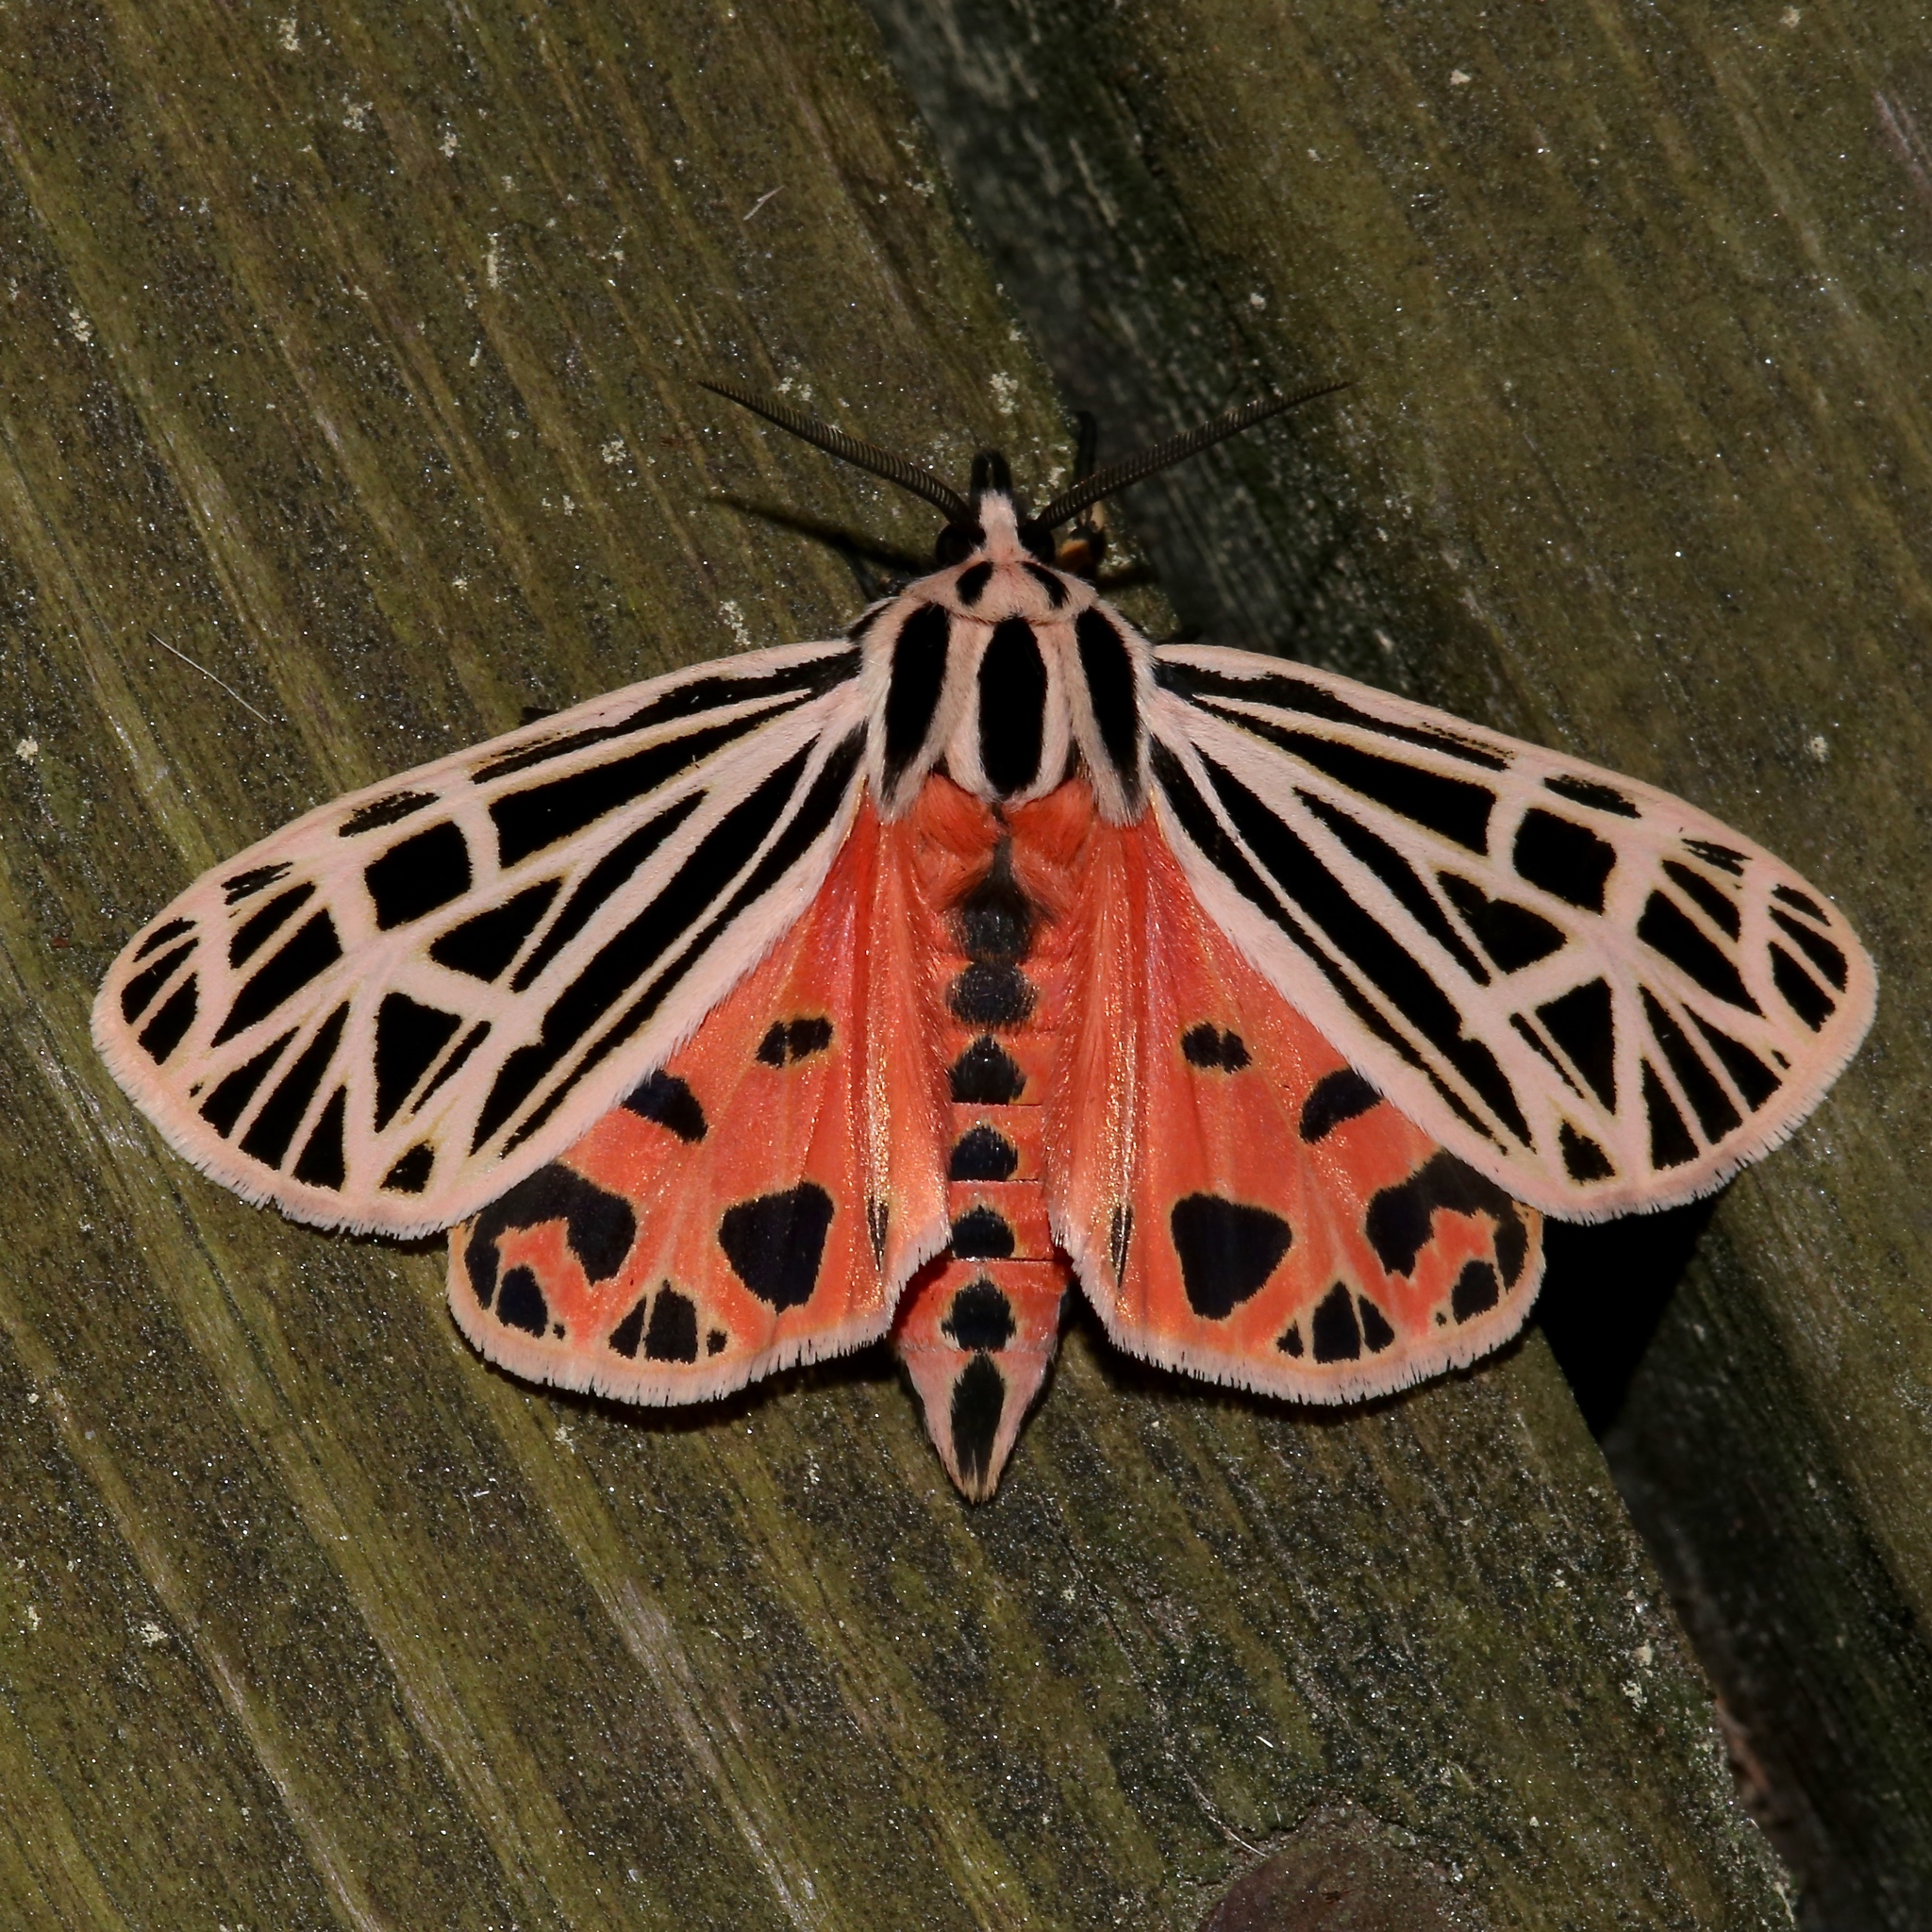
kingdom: Animalia
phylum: Arthropoda
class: Insecta
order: Lepidoptera
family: Erebidae
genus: Grammia
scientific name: Grammia virgo
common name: Virgin tiger moth
